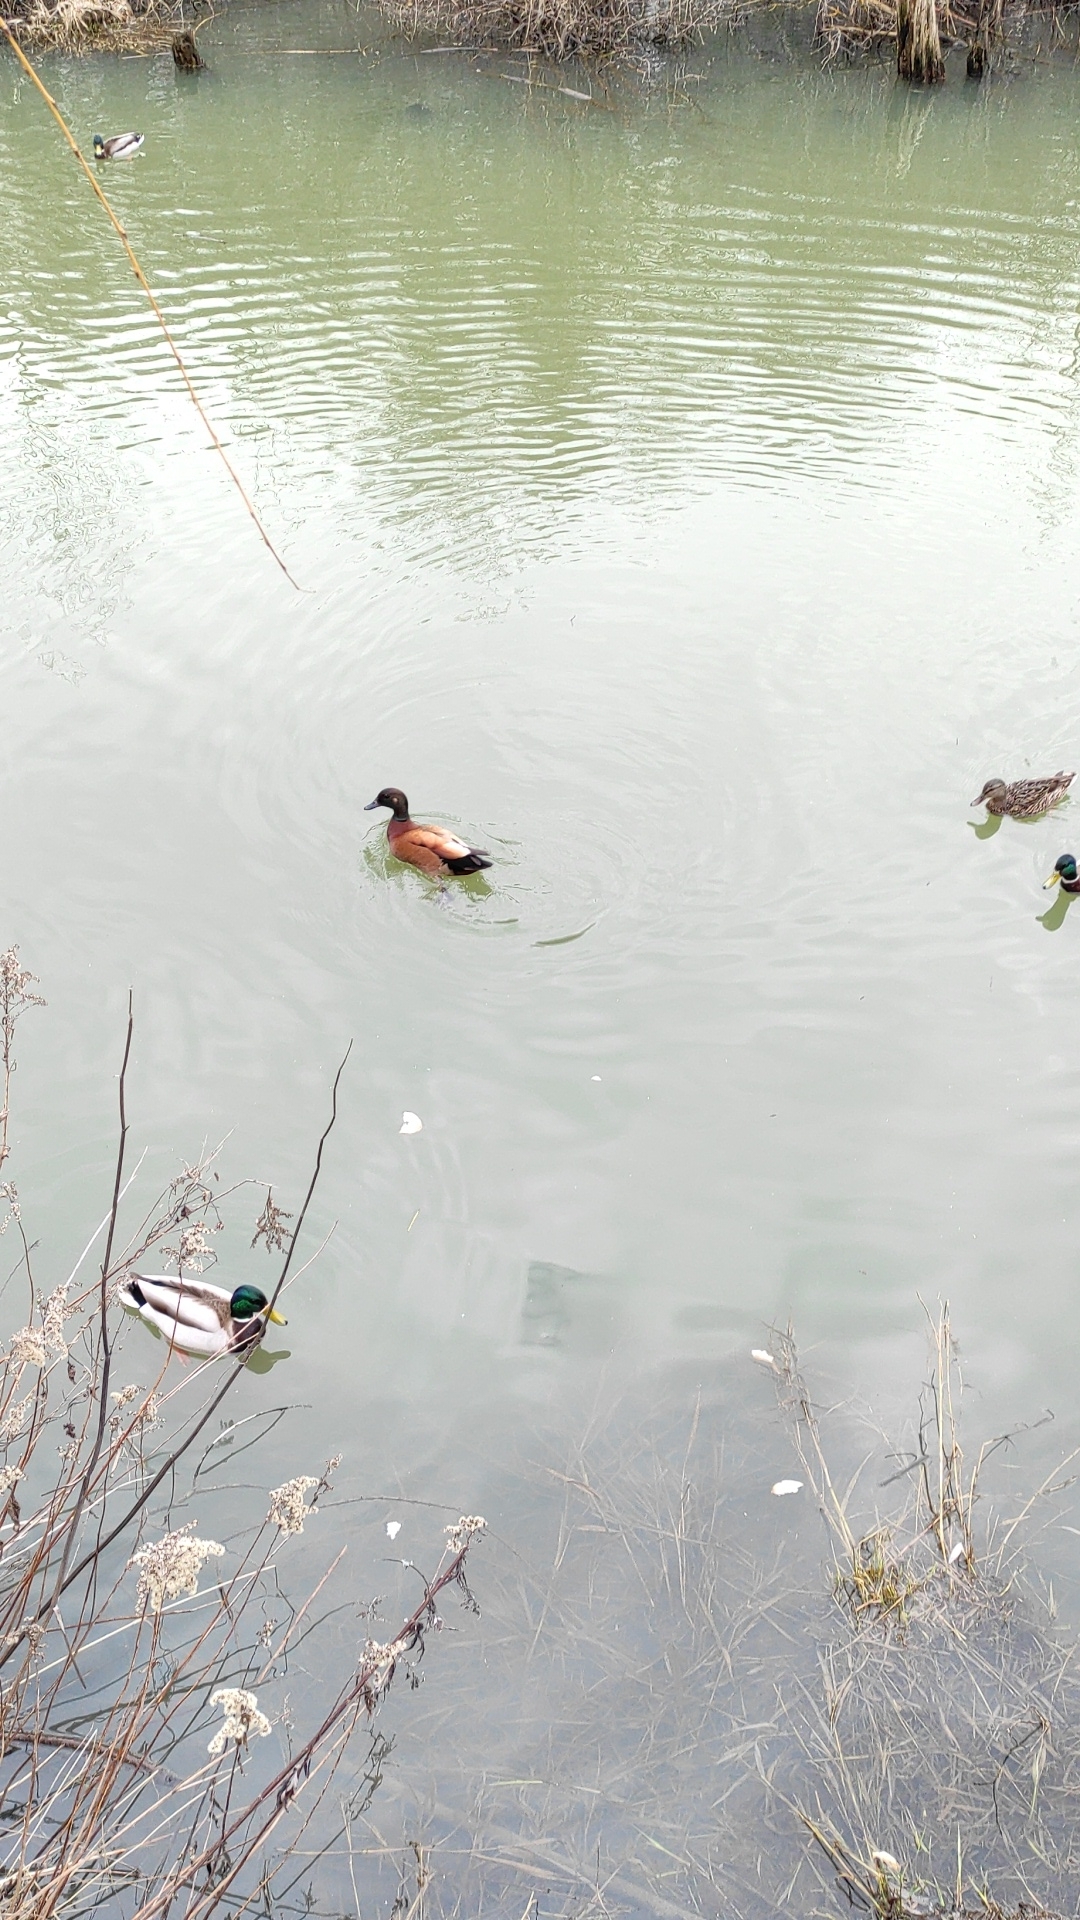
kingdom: Animalia
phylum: Chordata
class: Aves
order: Anseriformes
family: Anatidae
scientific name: Anatidae
